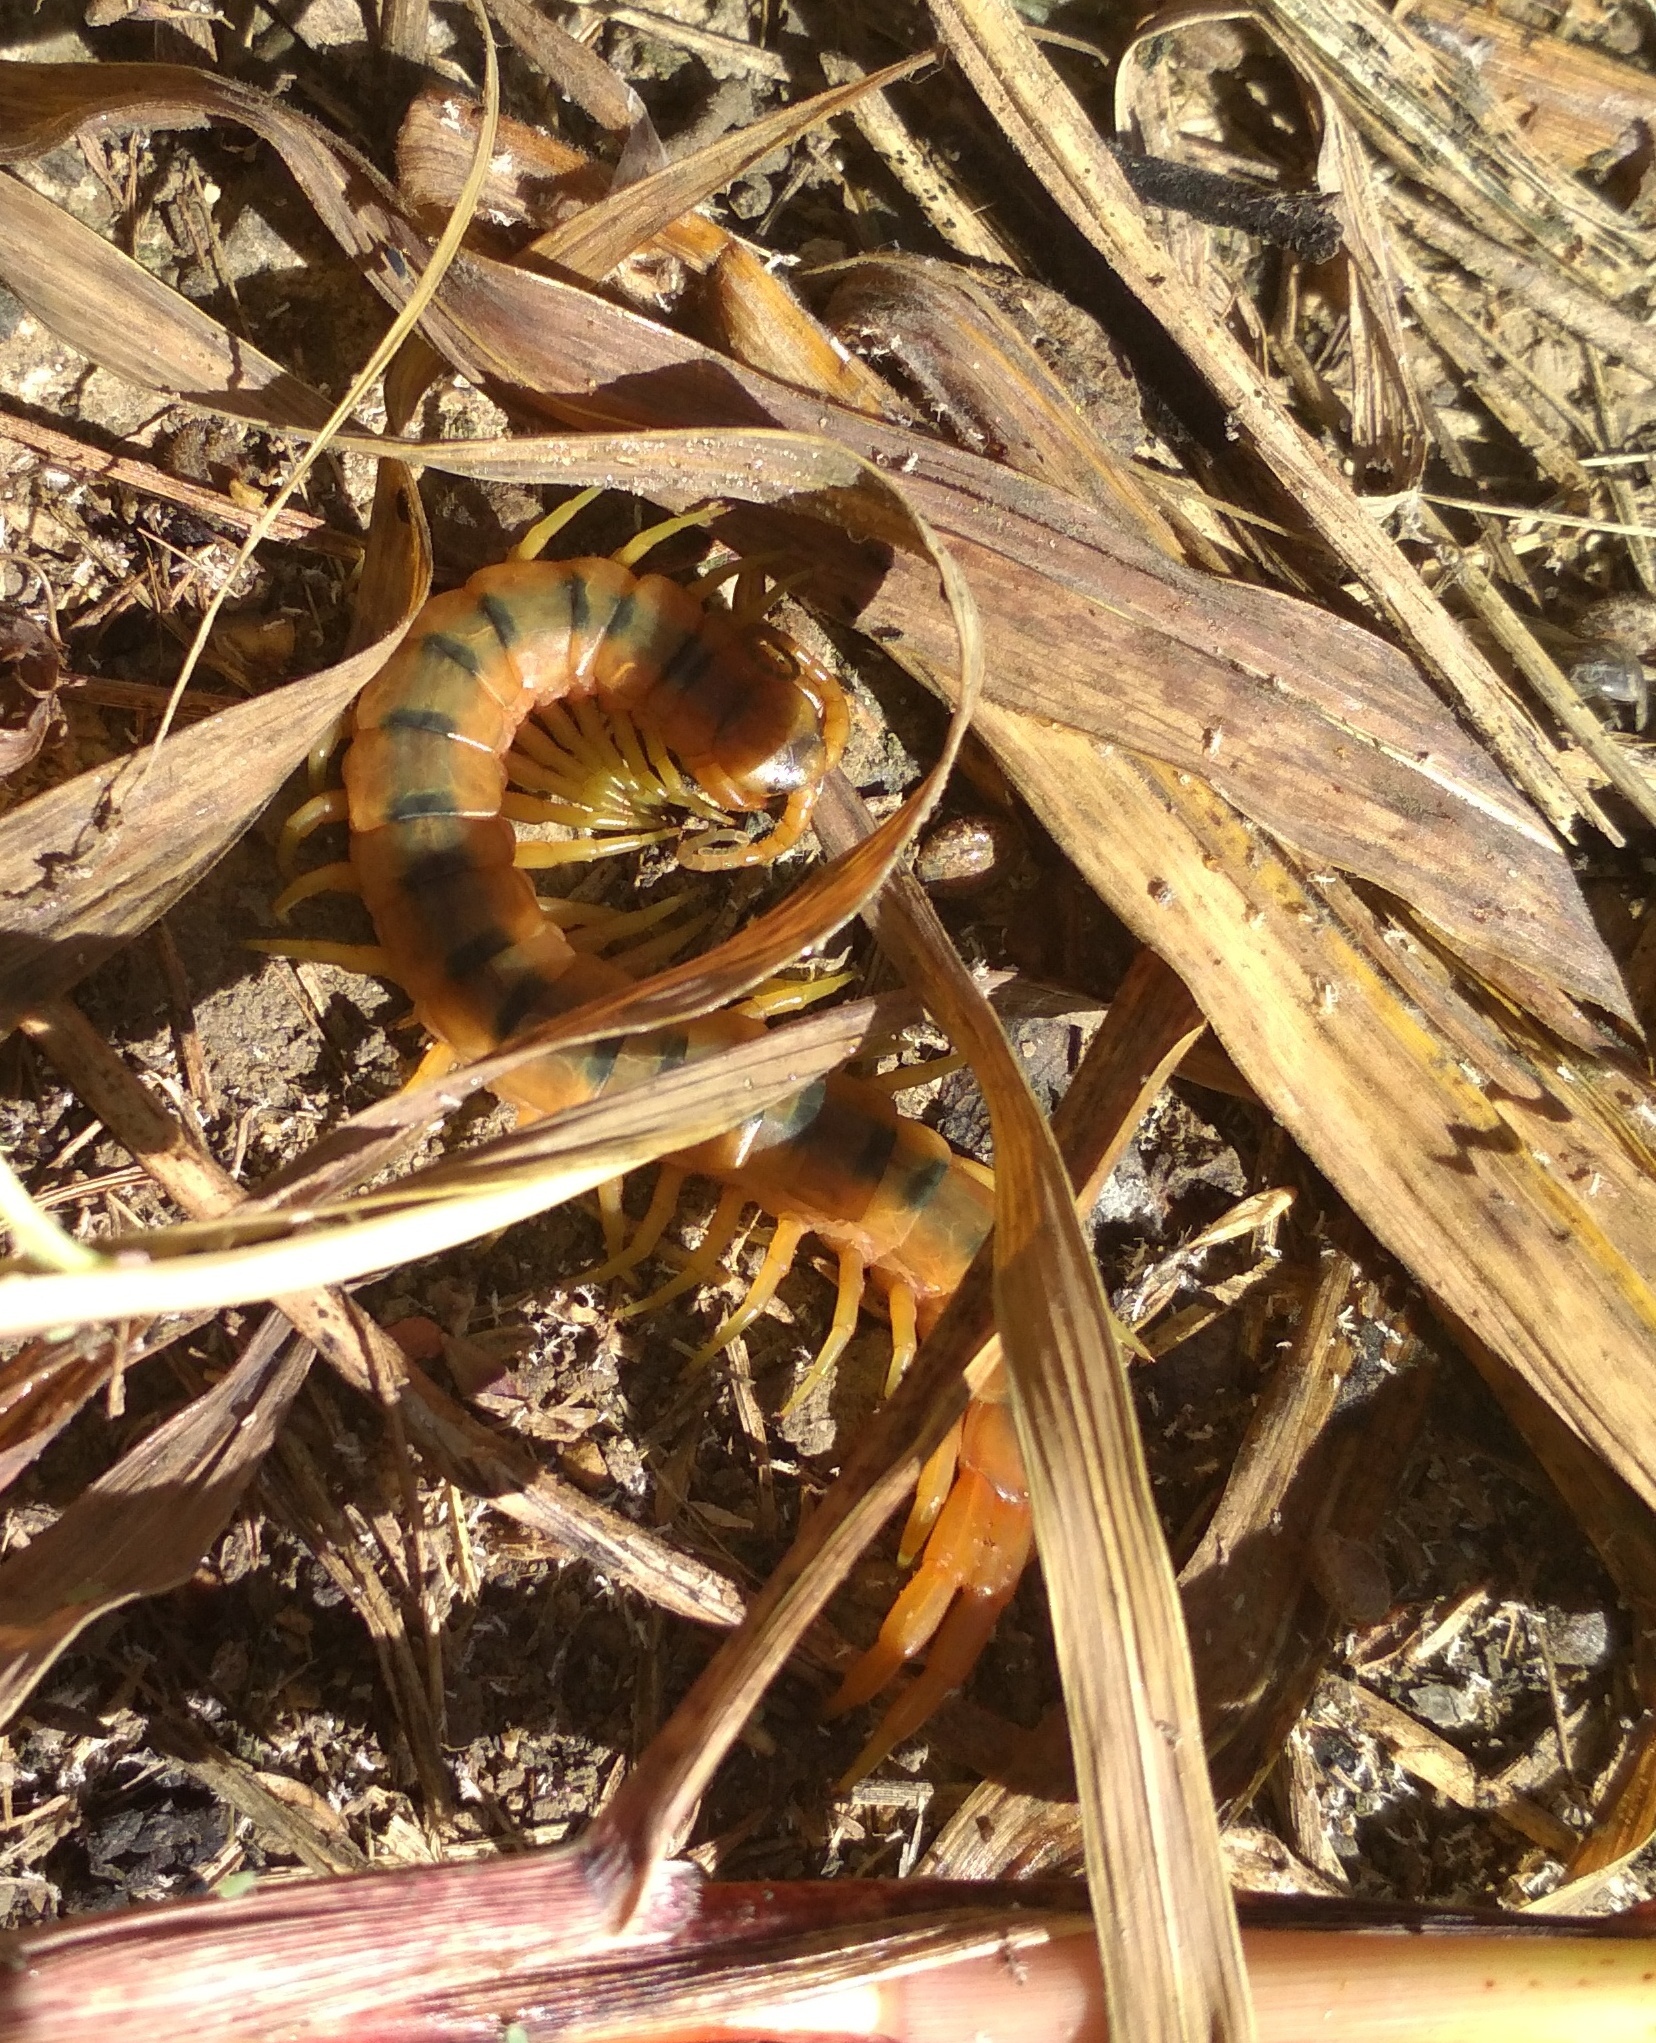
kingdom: Animalia
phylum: Arthropoda
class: Chilopoda
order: Scolopendromorpha
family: Scolopendridae
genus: Scolopendra
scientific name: Scolopendra cingulata
